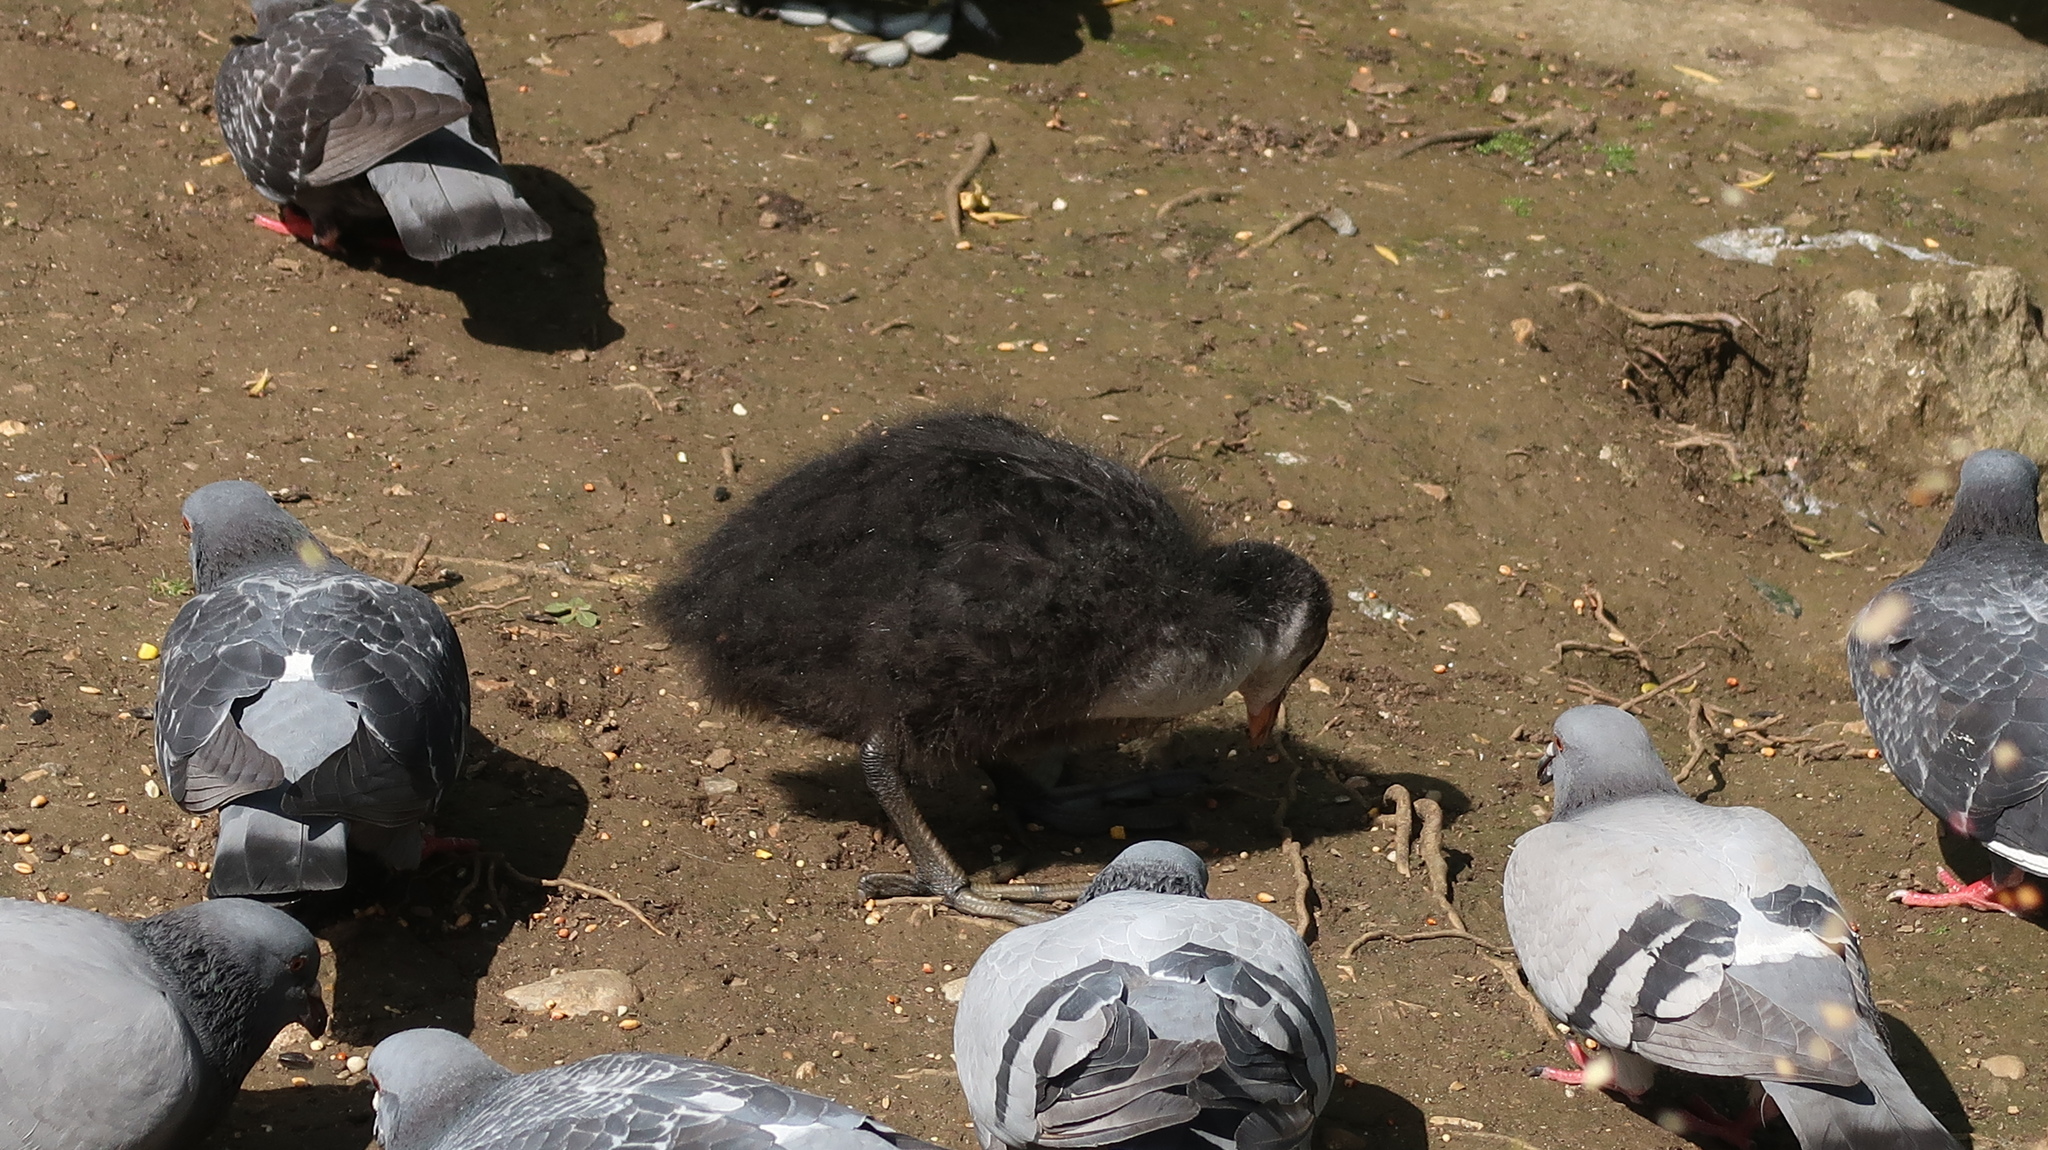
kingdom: Animalia
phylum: Chordata
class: Aves
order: Gruiformes
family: Rallidae
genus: Fulica
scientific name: Fulica atra
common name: Eurasian coot
